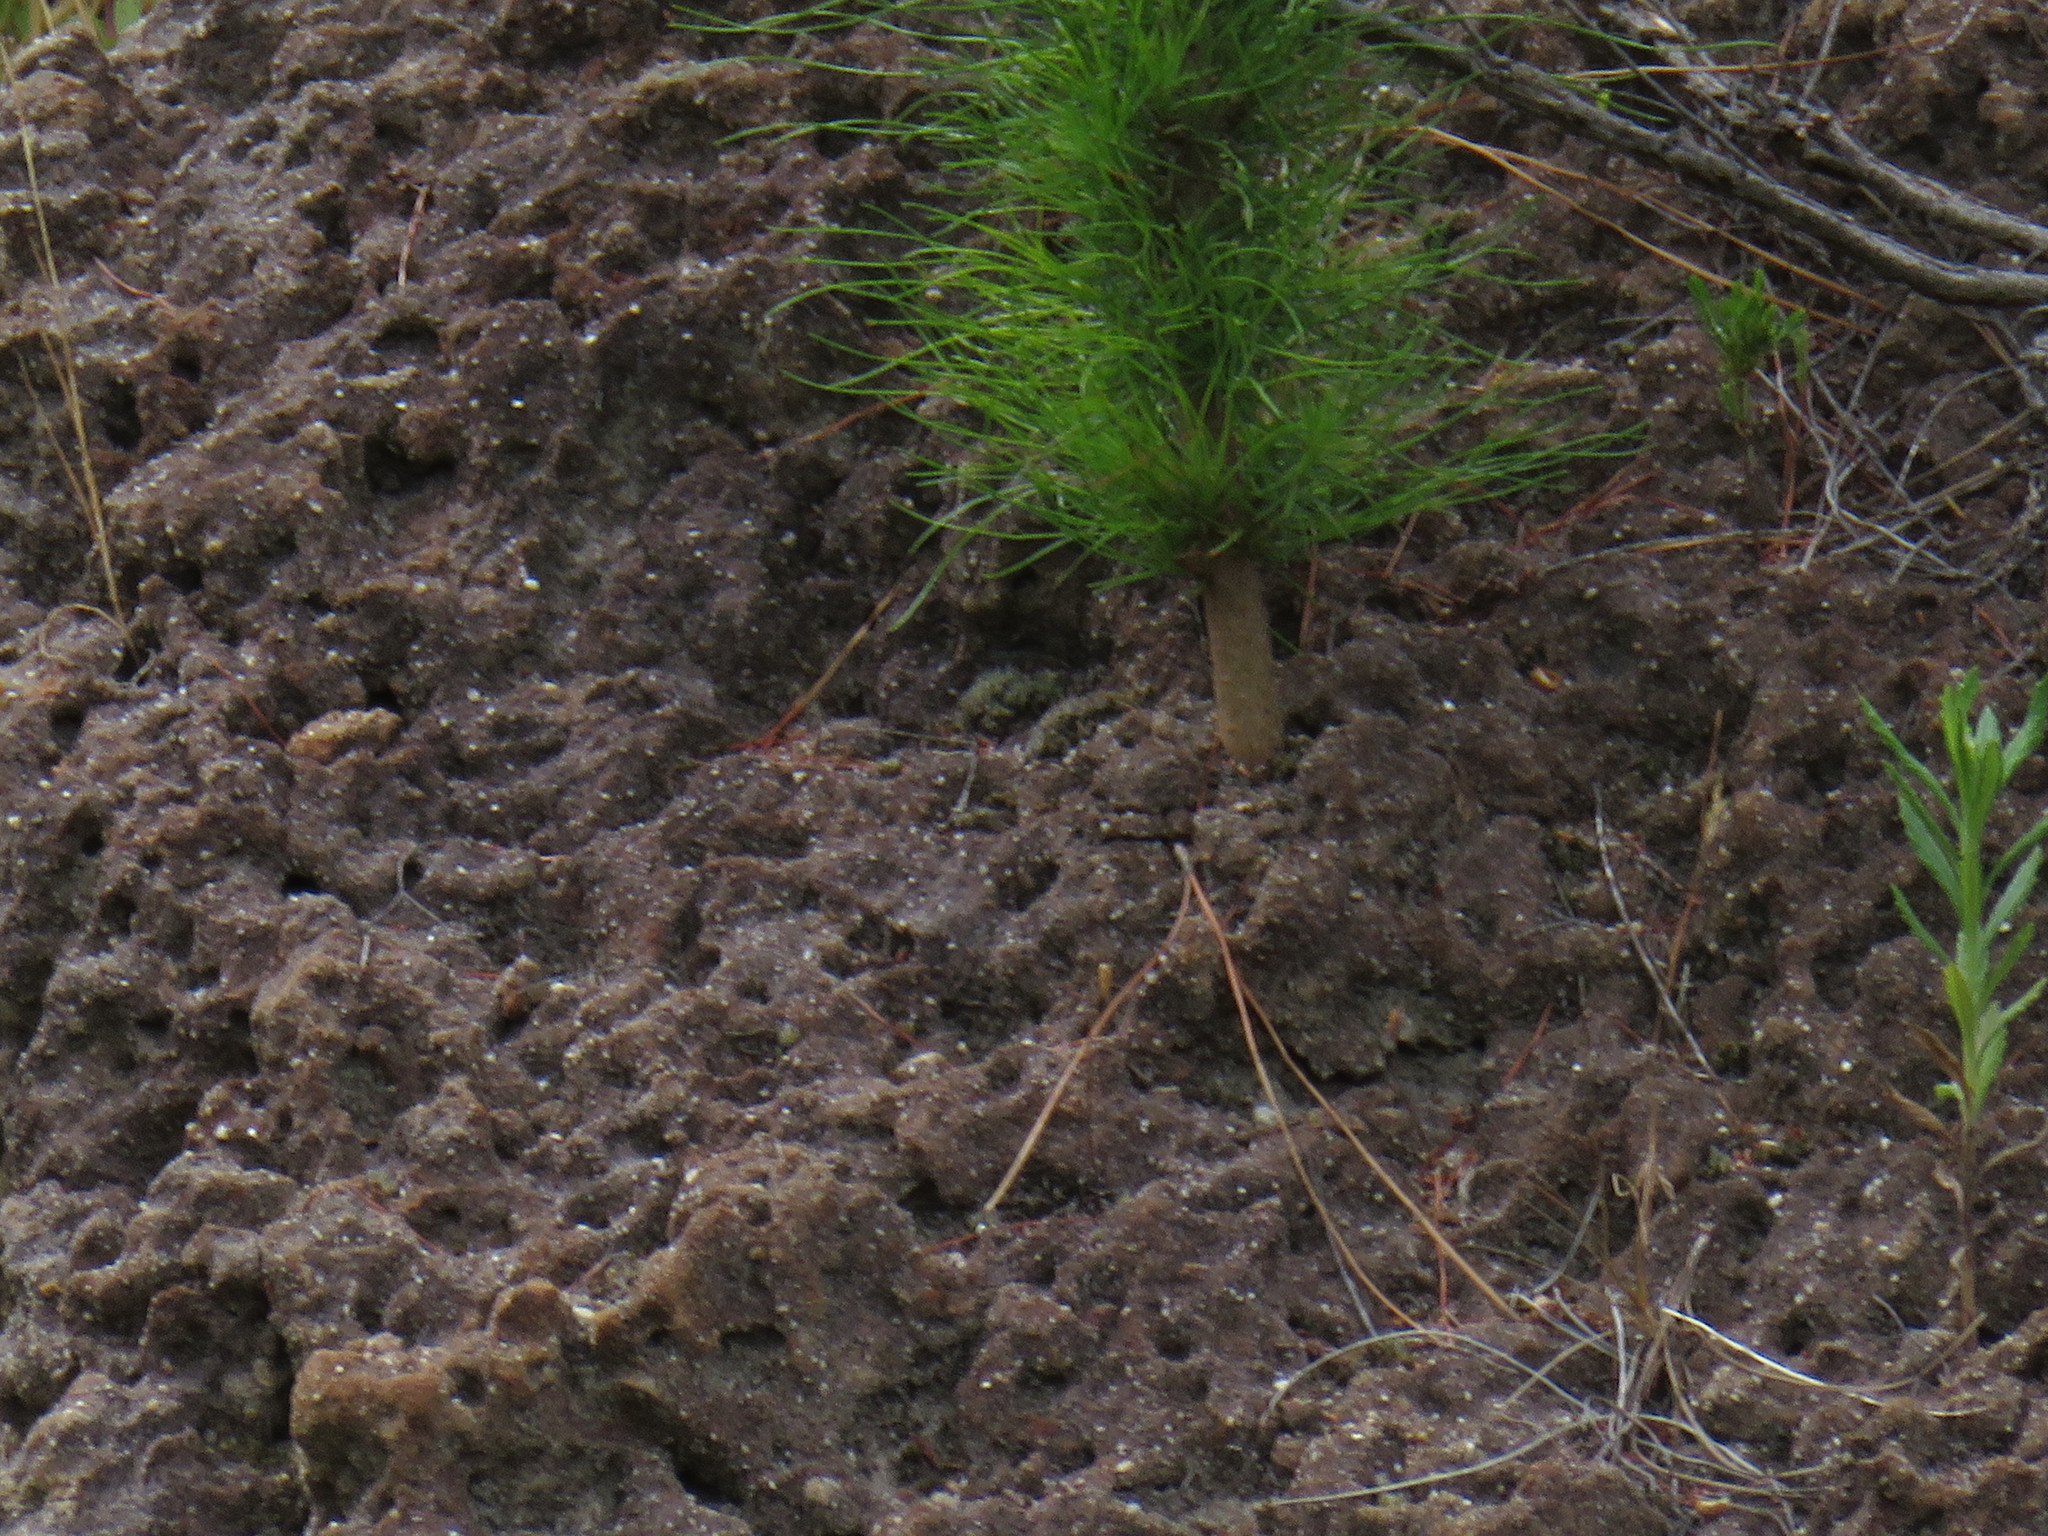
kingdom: Plantae
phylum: Tracheophyta
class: Pinopsida
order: Pinales
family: Pinaceae
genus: Pinus
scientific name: Pinus radiata
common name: Monterey pine
